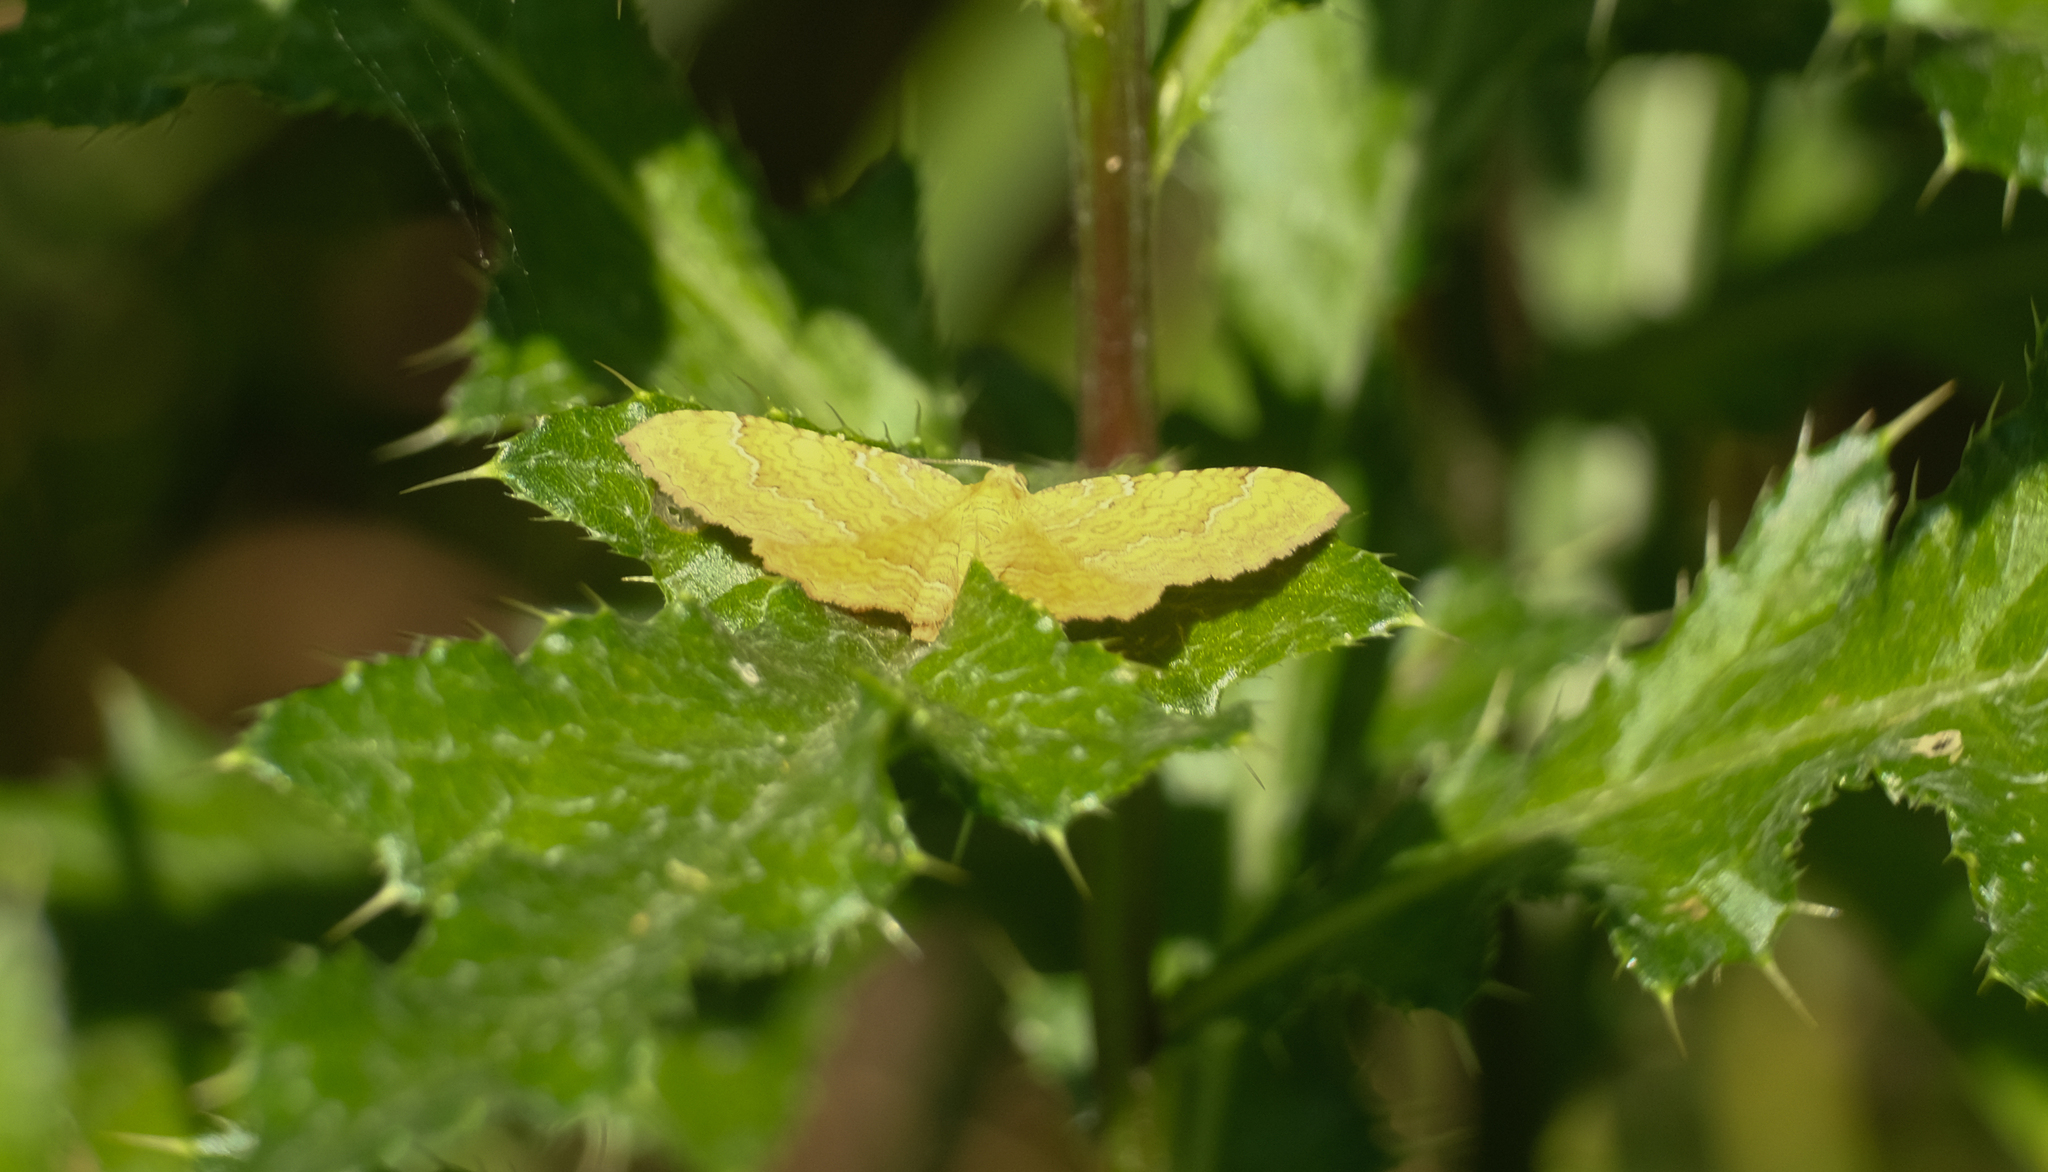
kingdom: Animalia
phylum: Arthropoda
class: Insecta
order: Lepidoptera
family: Geometridae
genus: Camptogramma
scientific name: Camptogramma bilineata
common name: Yellow shell
